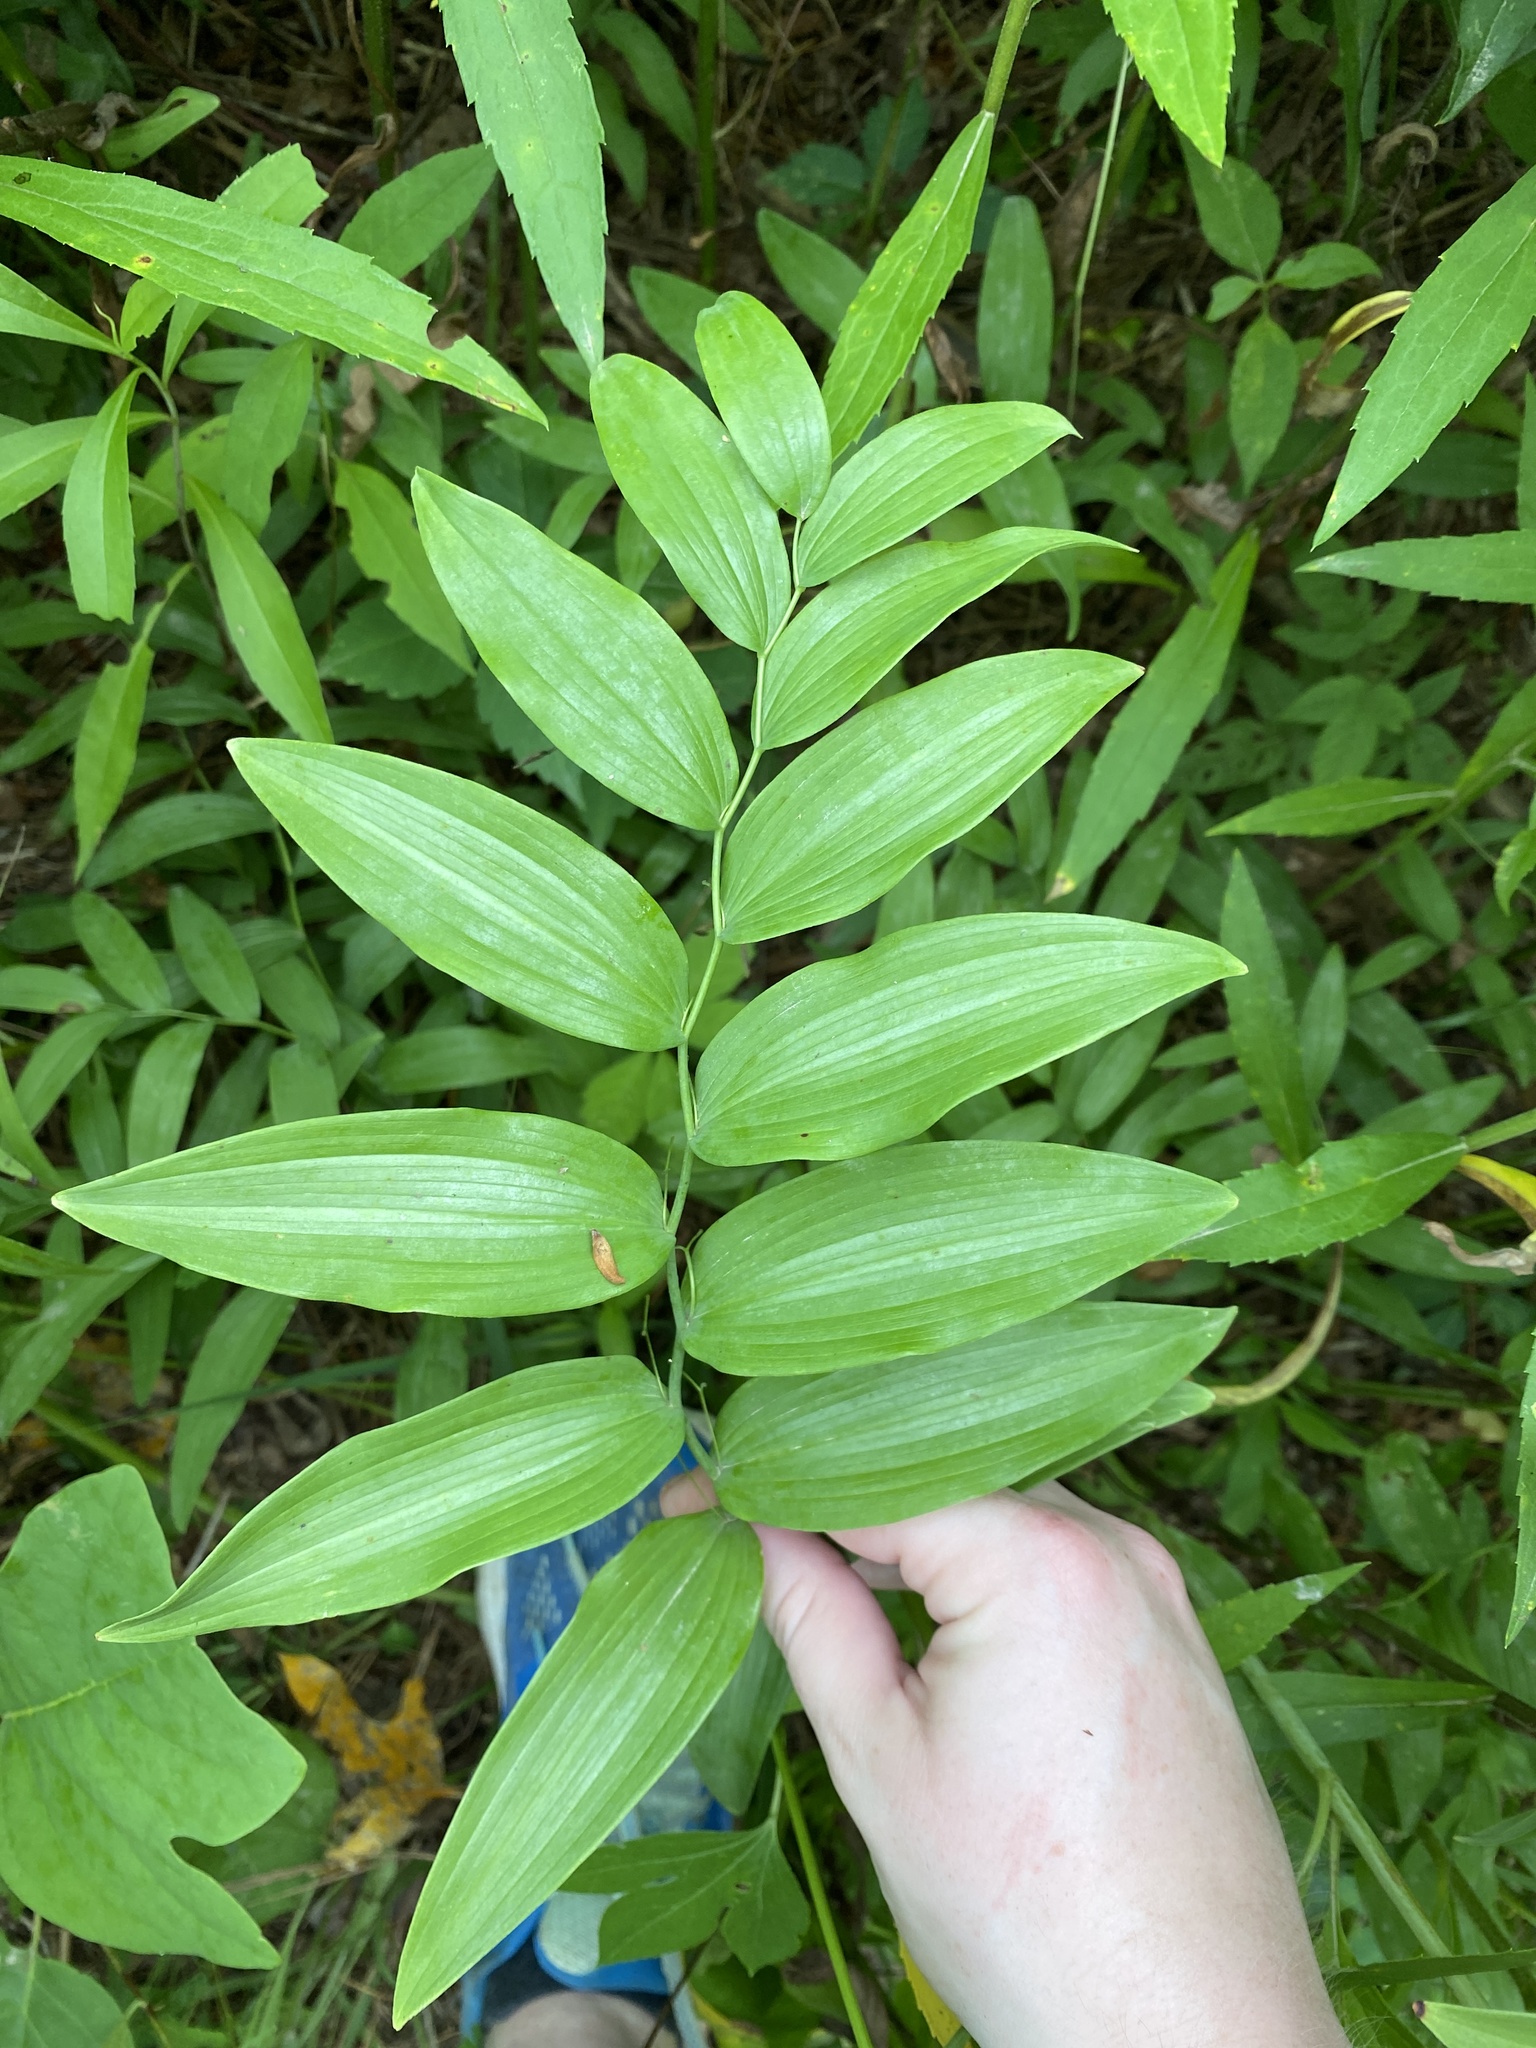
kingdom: Plantae
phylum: Tracheophyta
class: Liliopsida
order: Asparagales
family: Asparagaceae
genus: Polygonatum
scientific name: Polygonatum biflorum
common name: American solomon's-seal
